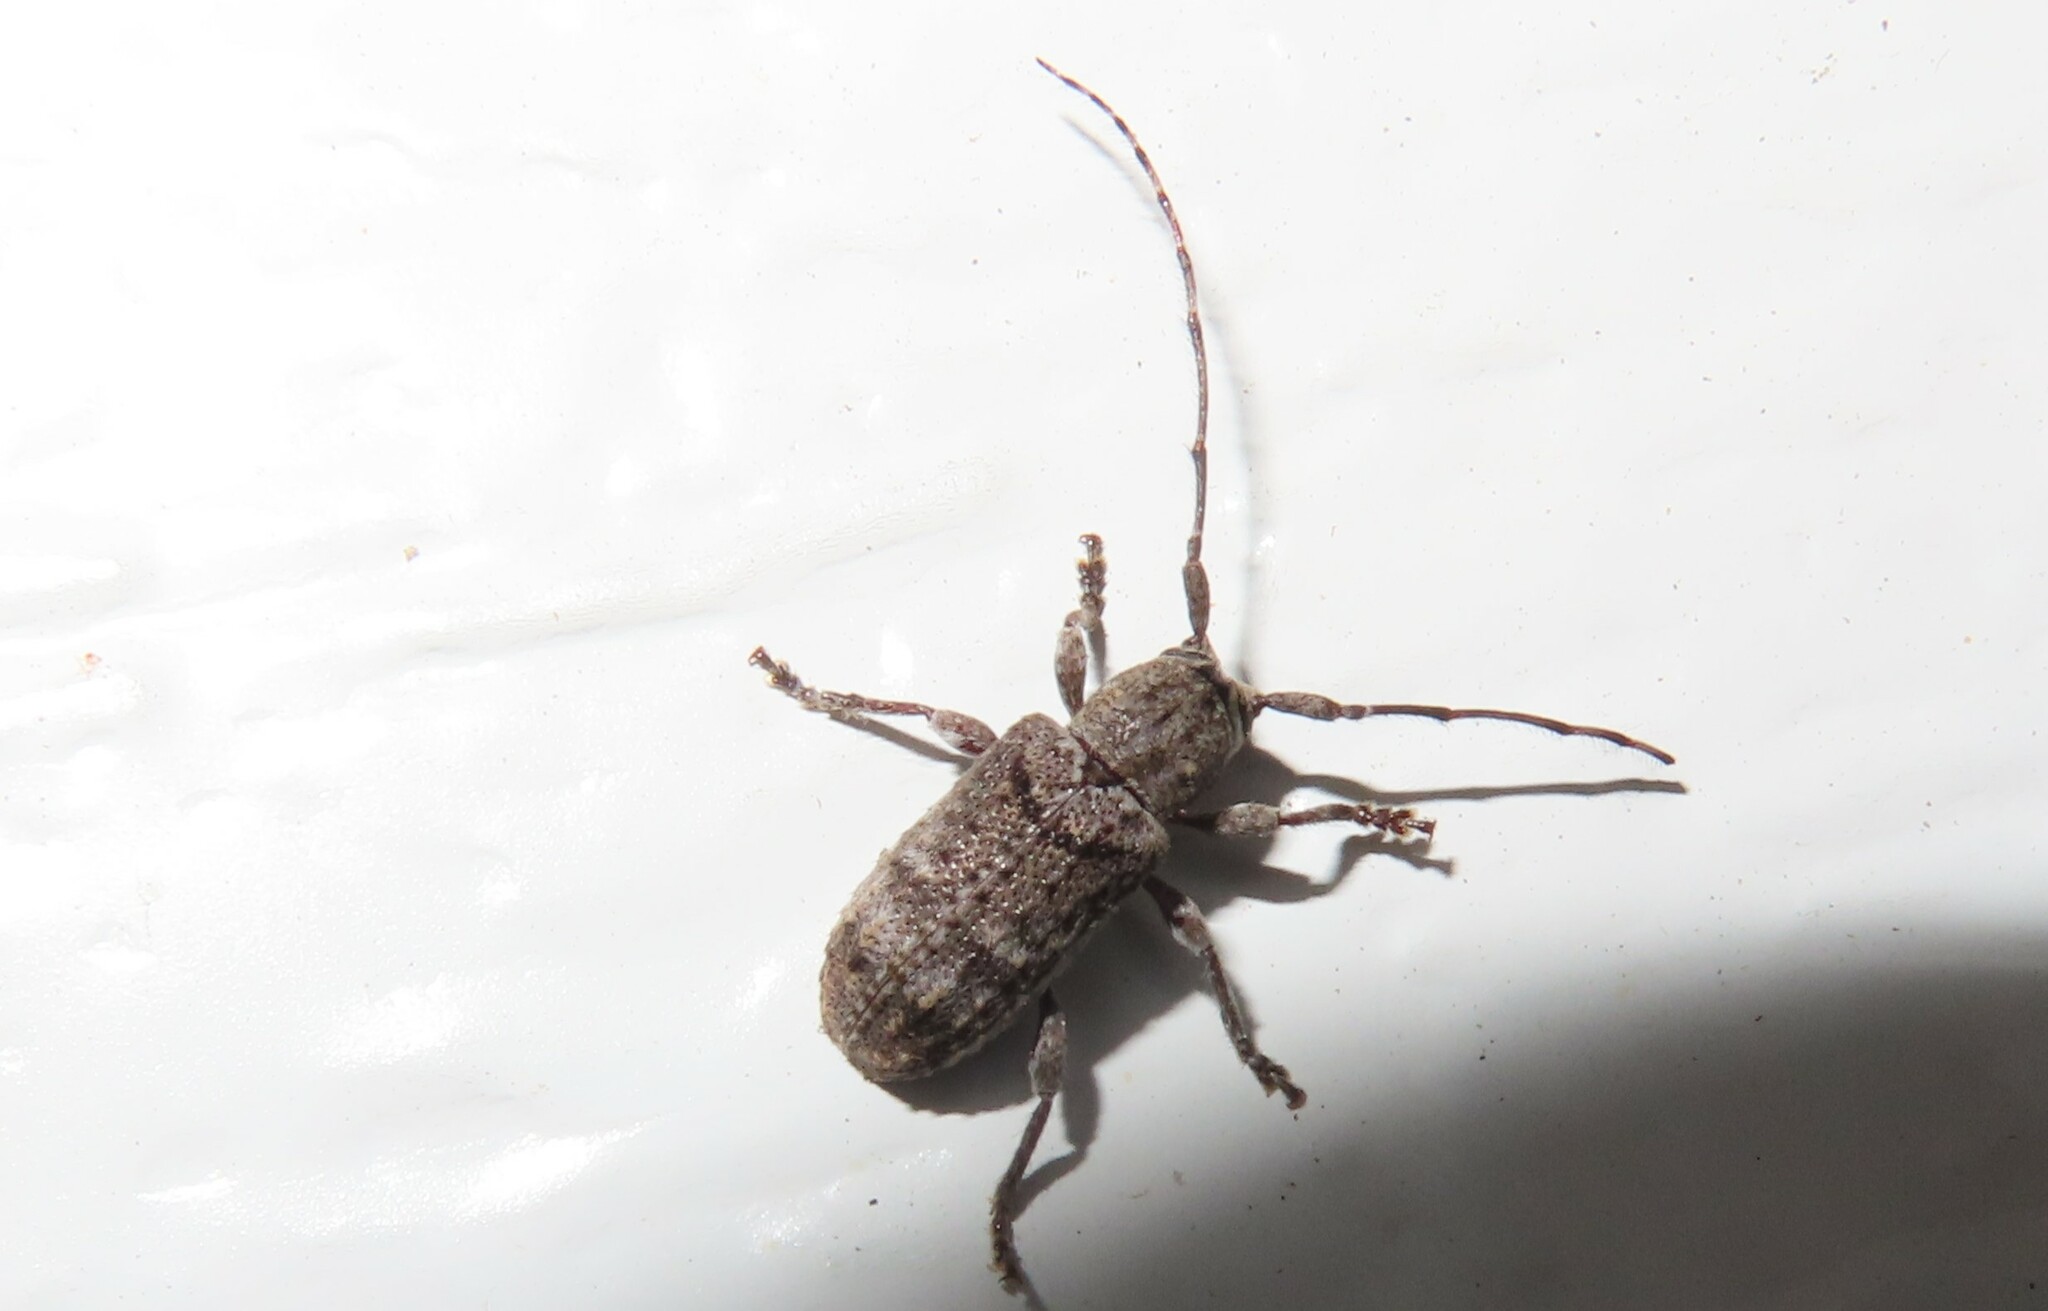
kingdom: Animalia
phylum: Arthropoda
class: Insecta
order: Coleoptera
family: Cerambycidae
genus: Ecyrus
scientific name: Ecyrus dasycerus
